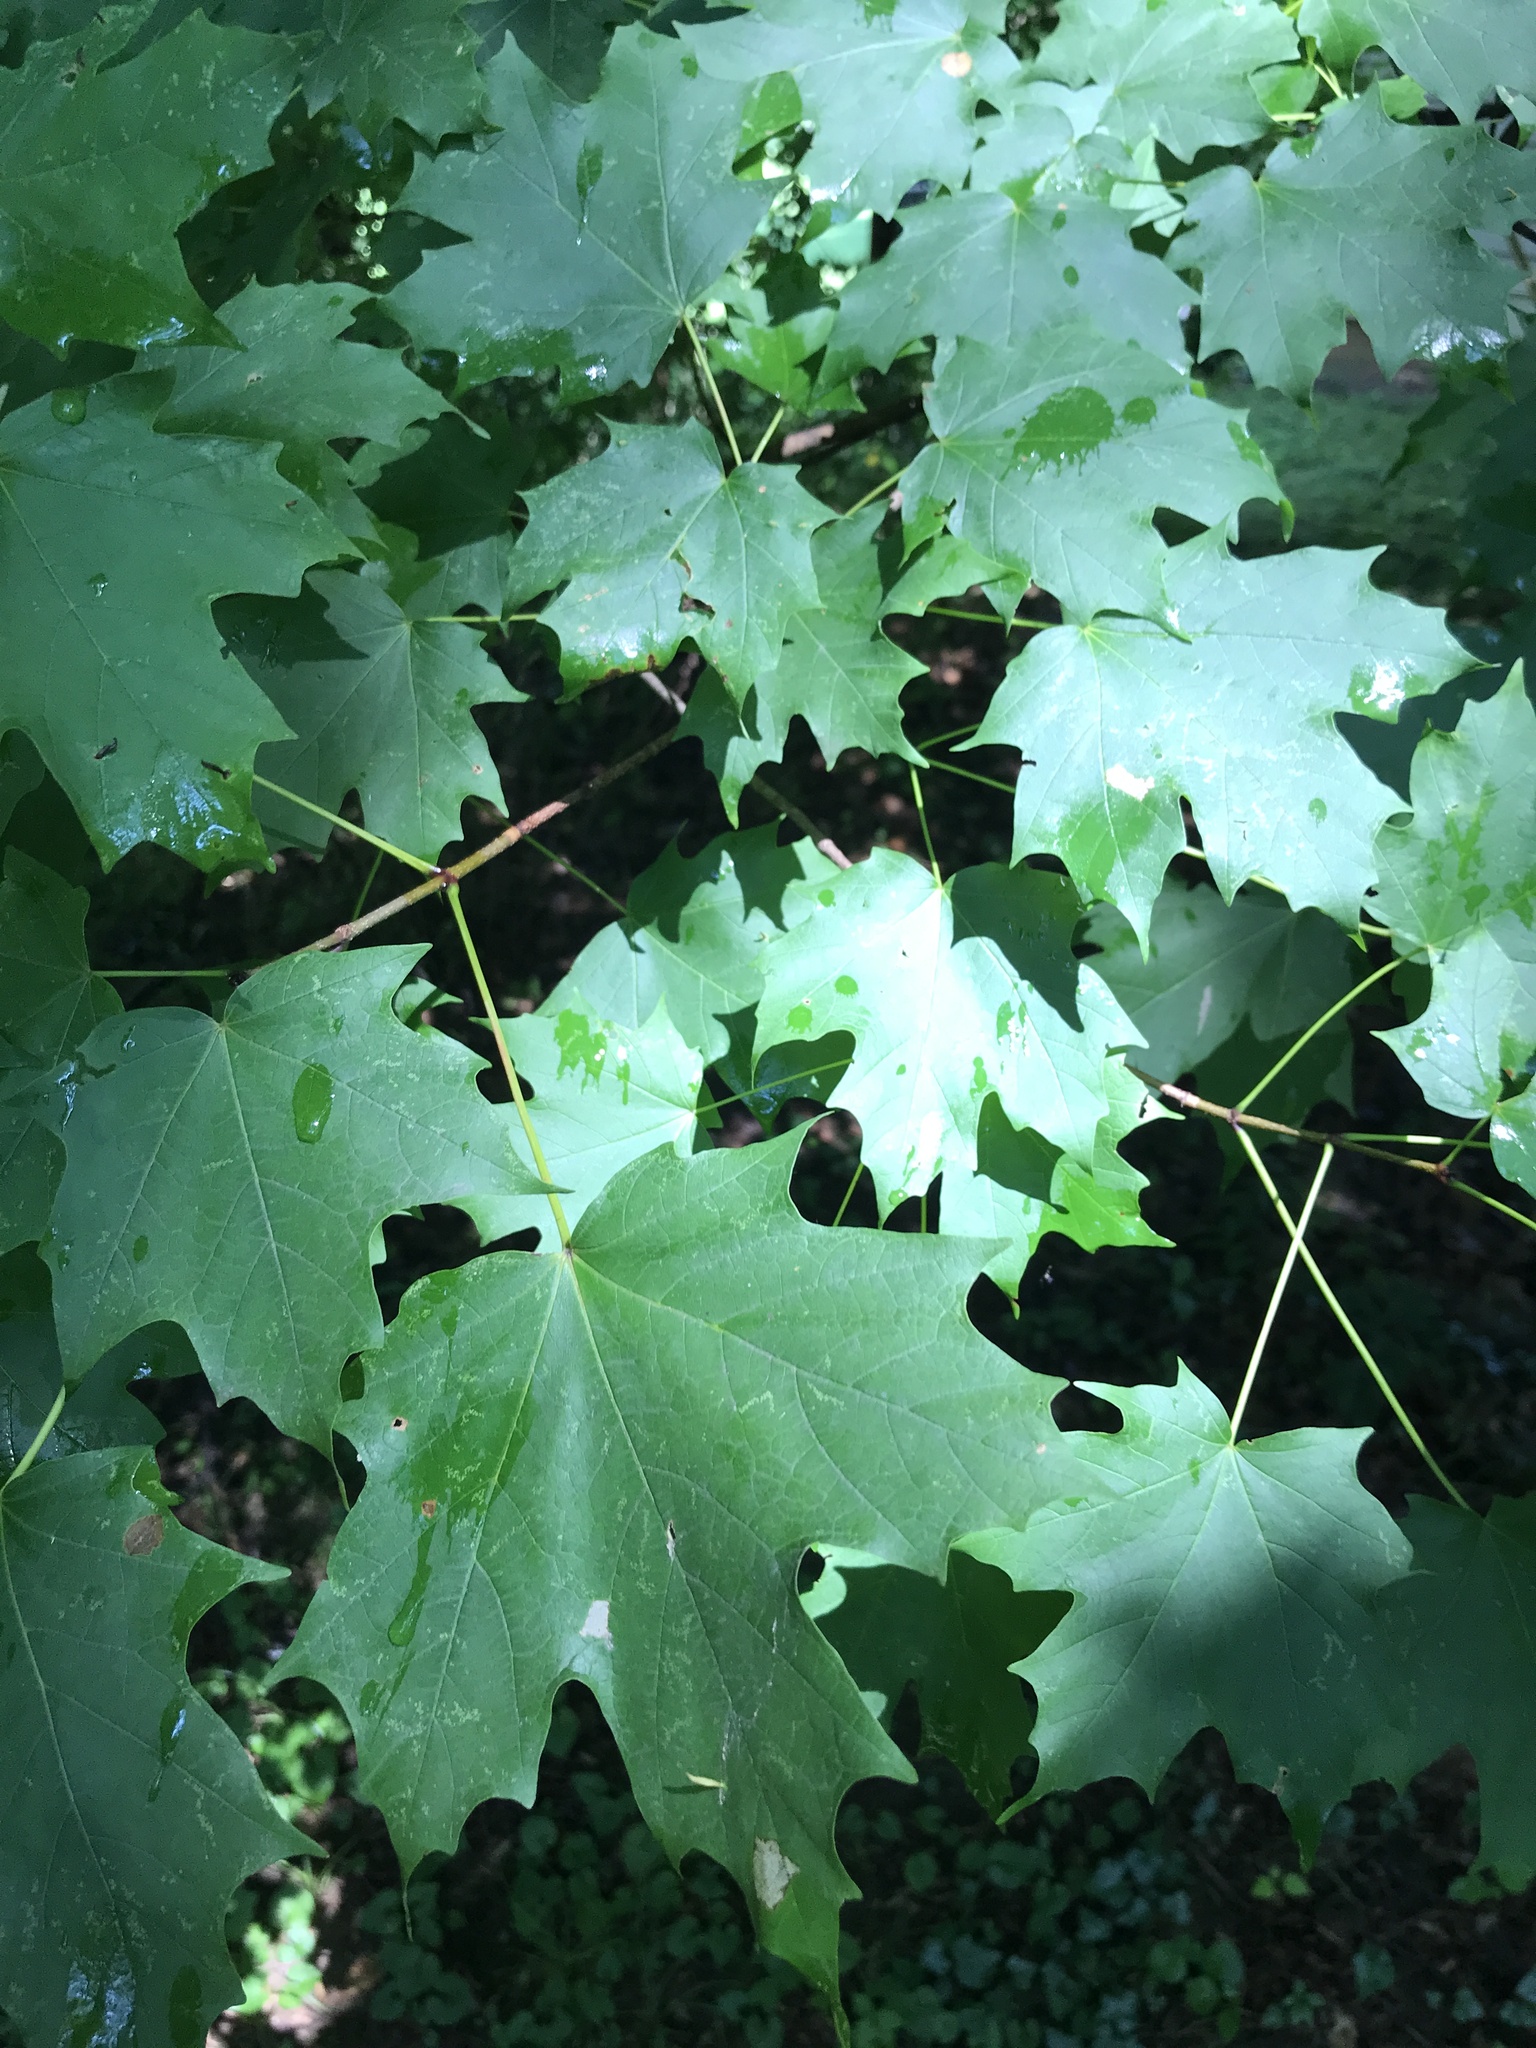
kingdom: Plantae
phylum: Tracheophyta
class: Magnoliopsida
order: Sapindales
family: Sapindaceae
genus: Acer
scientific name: Acer saccharum
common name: Sugar maple
